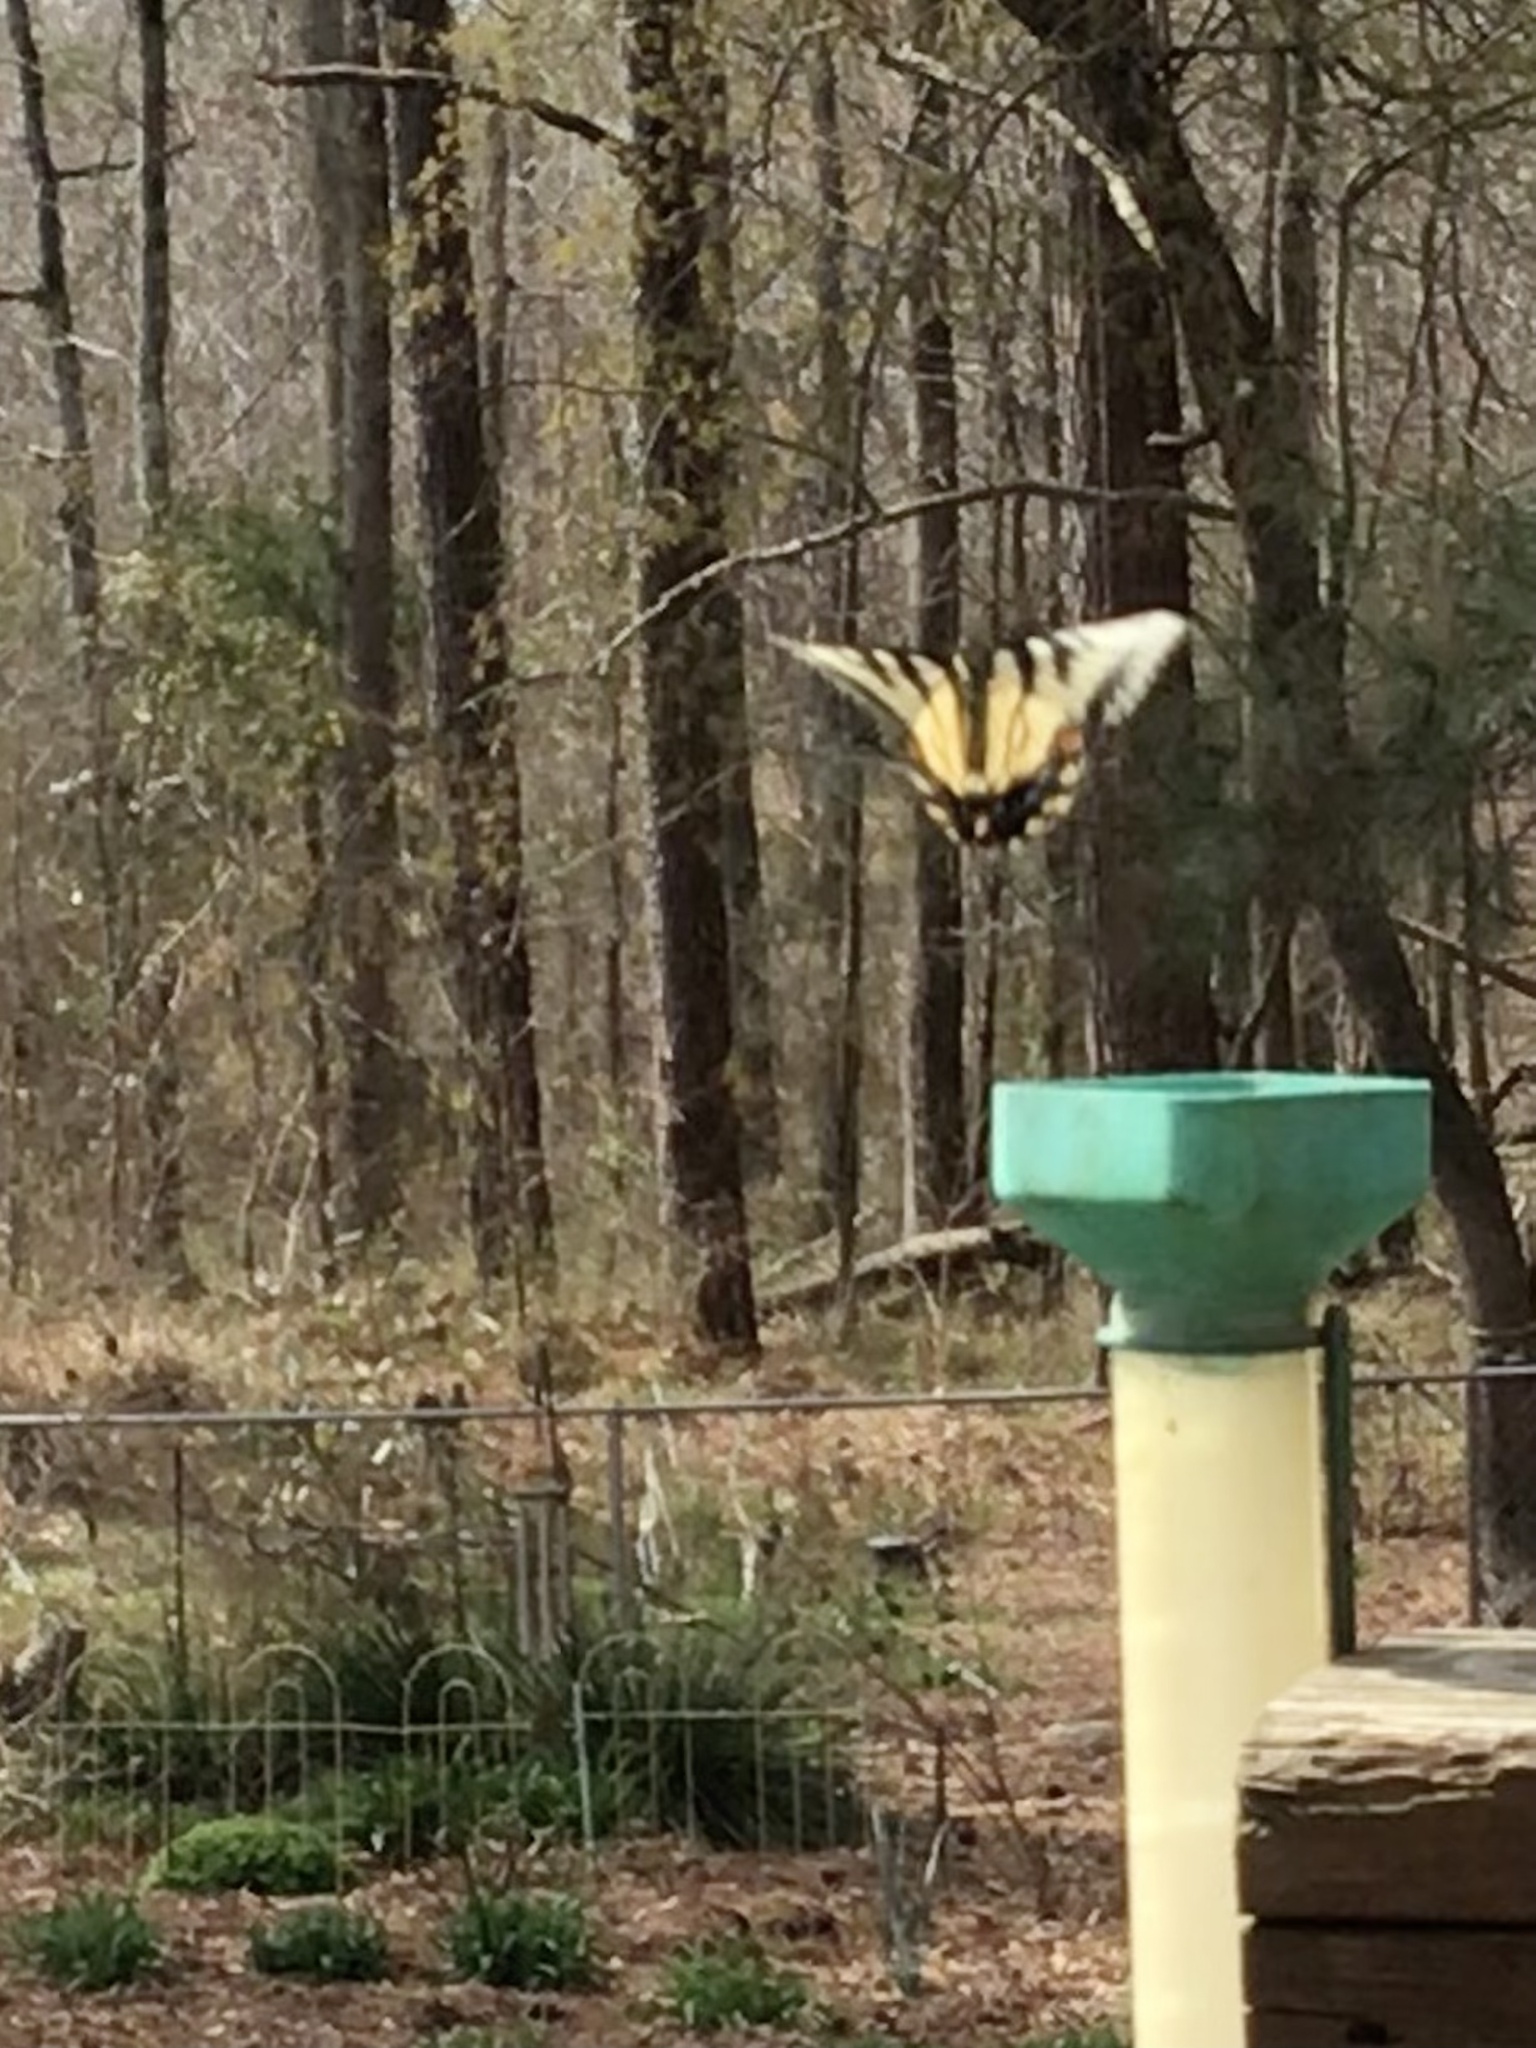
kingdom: Animalia
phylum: Arthropoda
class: Insecta
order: Lepidoptera
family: Papilionidae
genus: Papilio
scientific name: Papilio glaucus
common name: Tiger swallowtail
